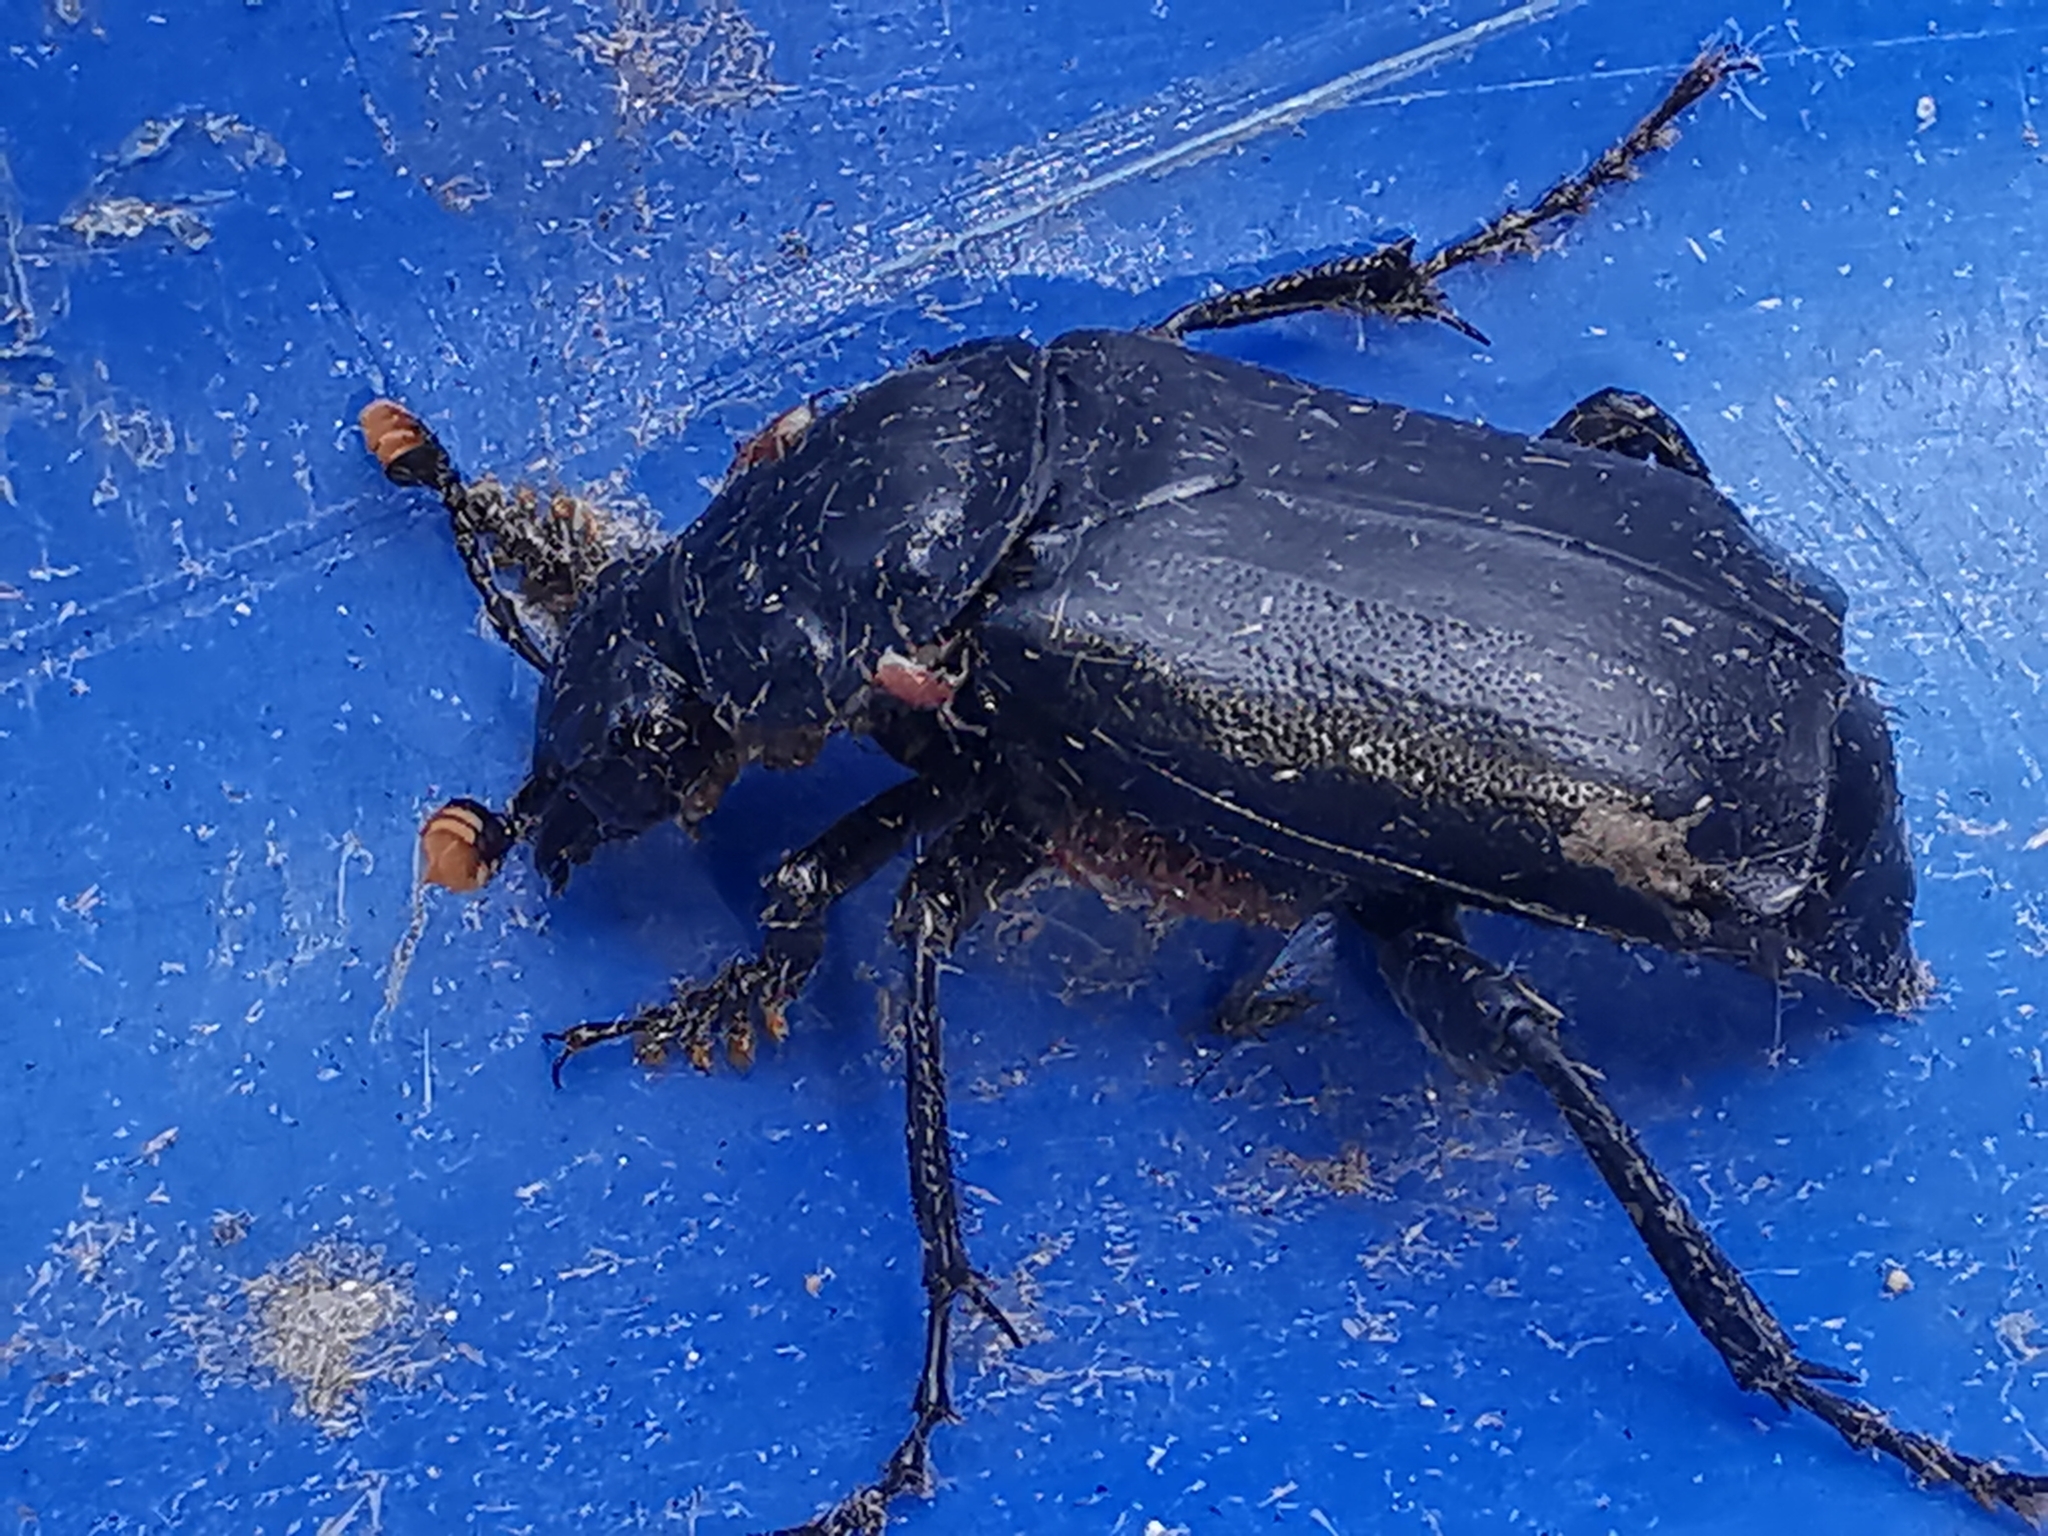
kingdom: Animalia
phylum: Arthropoda
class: Insecta
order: Coleoptera
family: Staphylinidae
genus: Nicrophorus
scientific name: Nicrophorus humator
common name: Black sexton beetle
